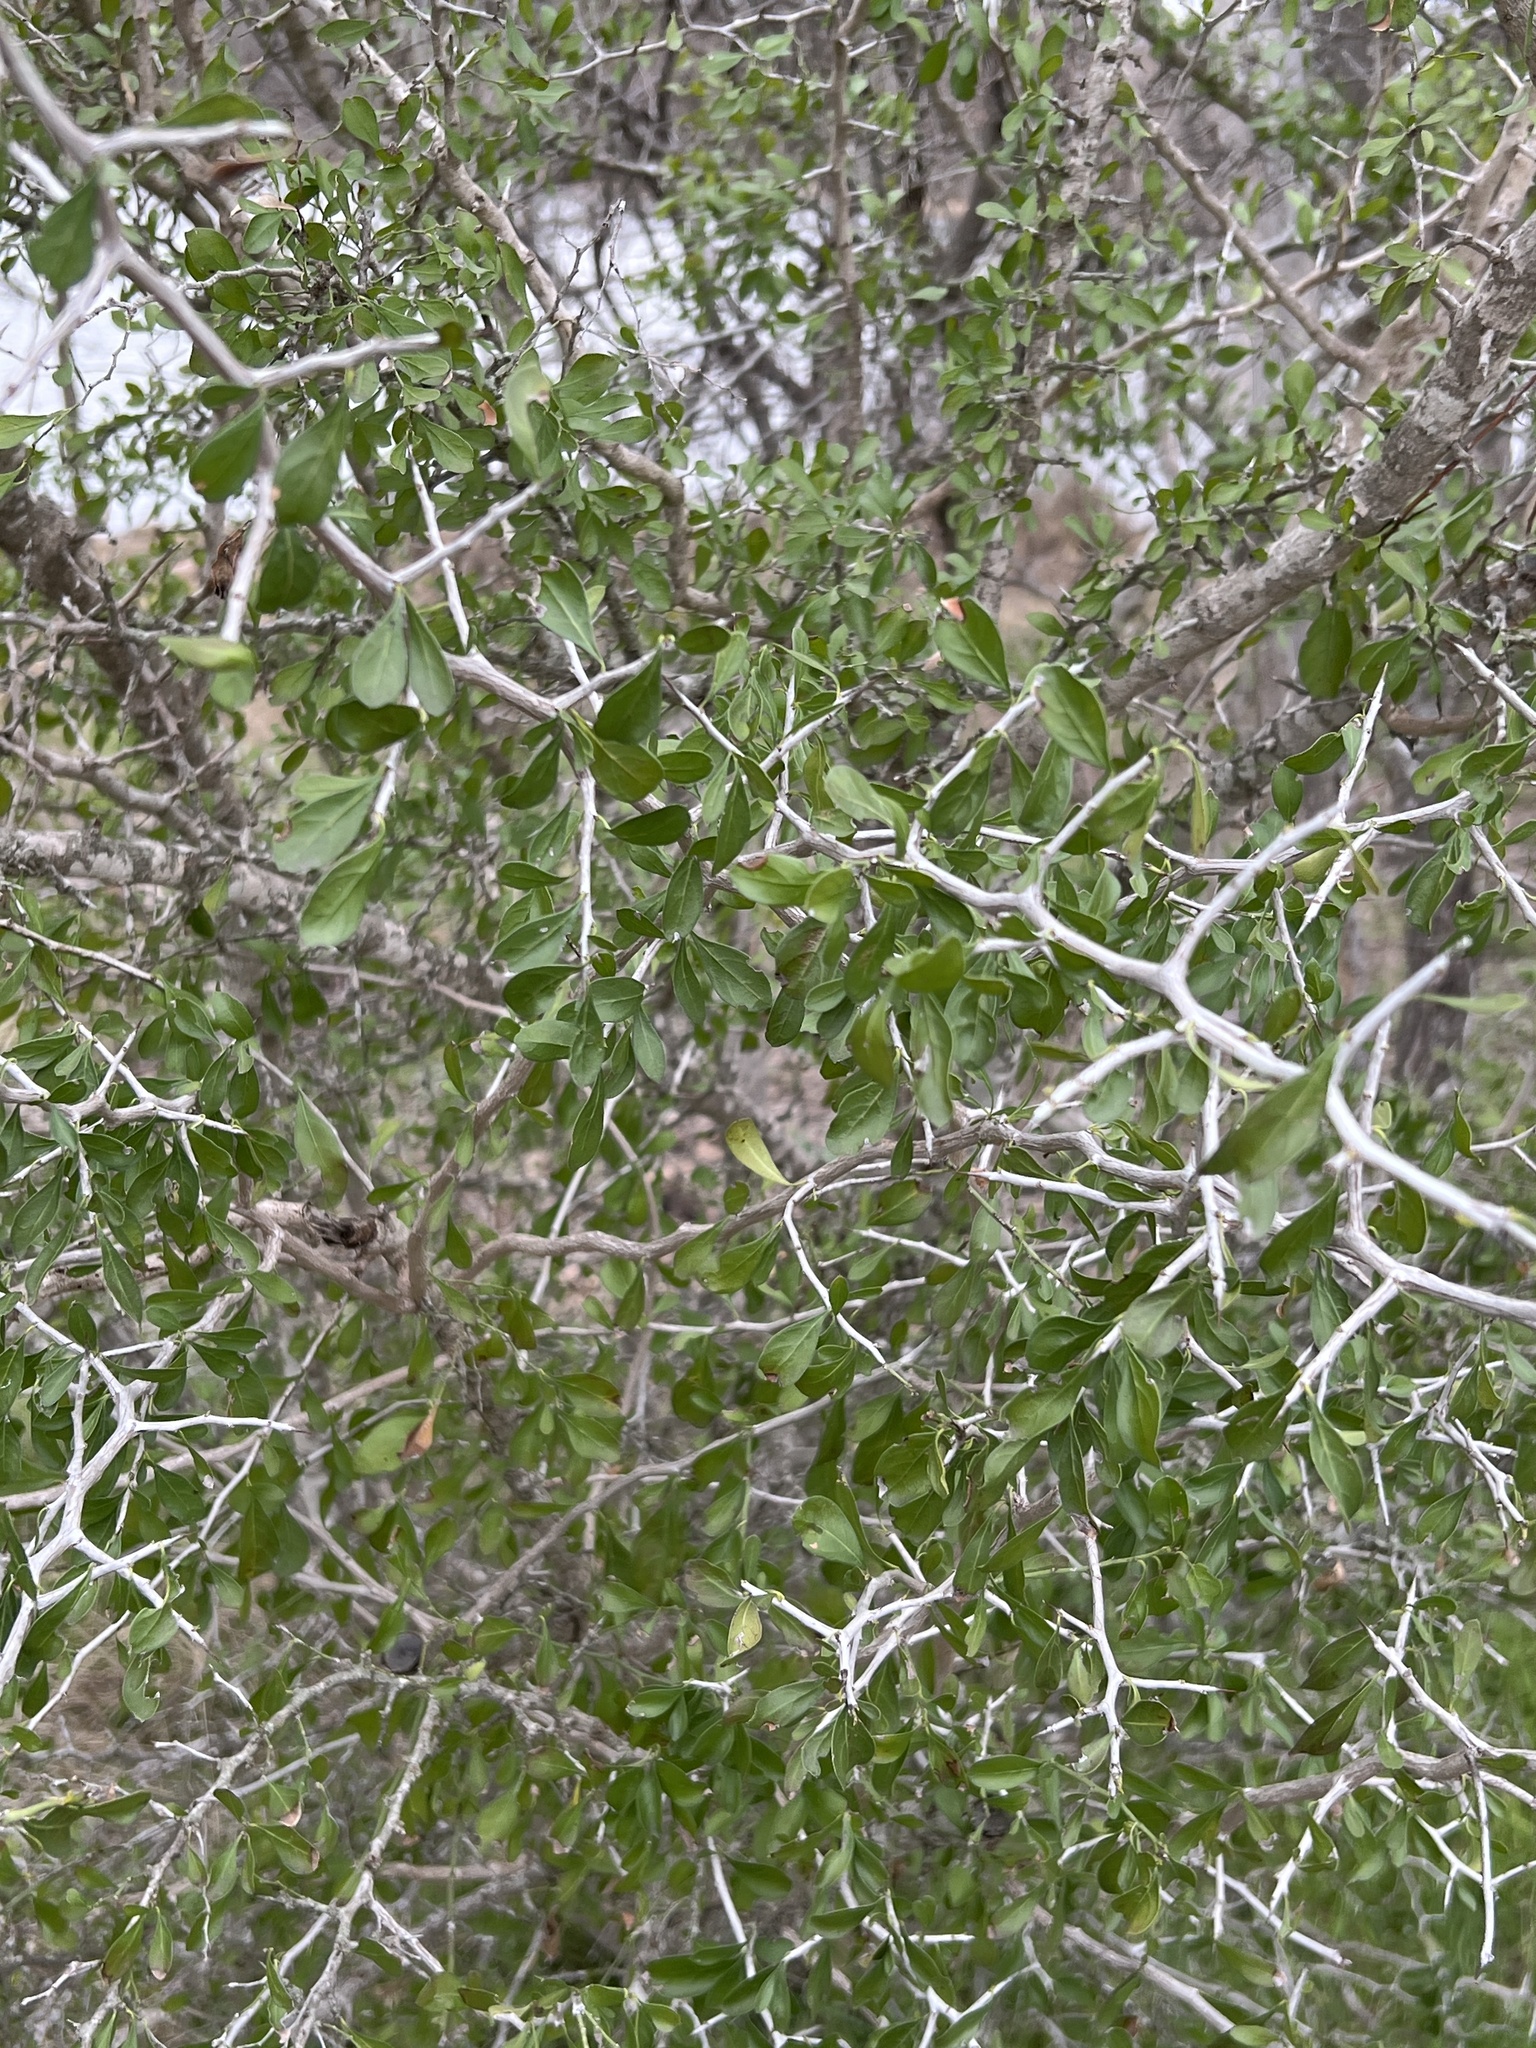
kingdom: Plantae
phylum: Tracheophyta
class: Magnoliopsida
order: Rosales
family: Rhamnaceae
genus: Condalia
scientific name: Condalia hookeri
